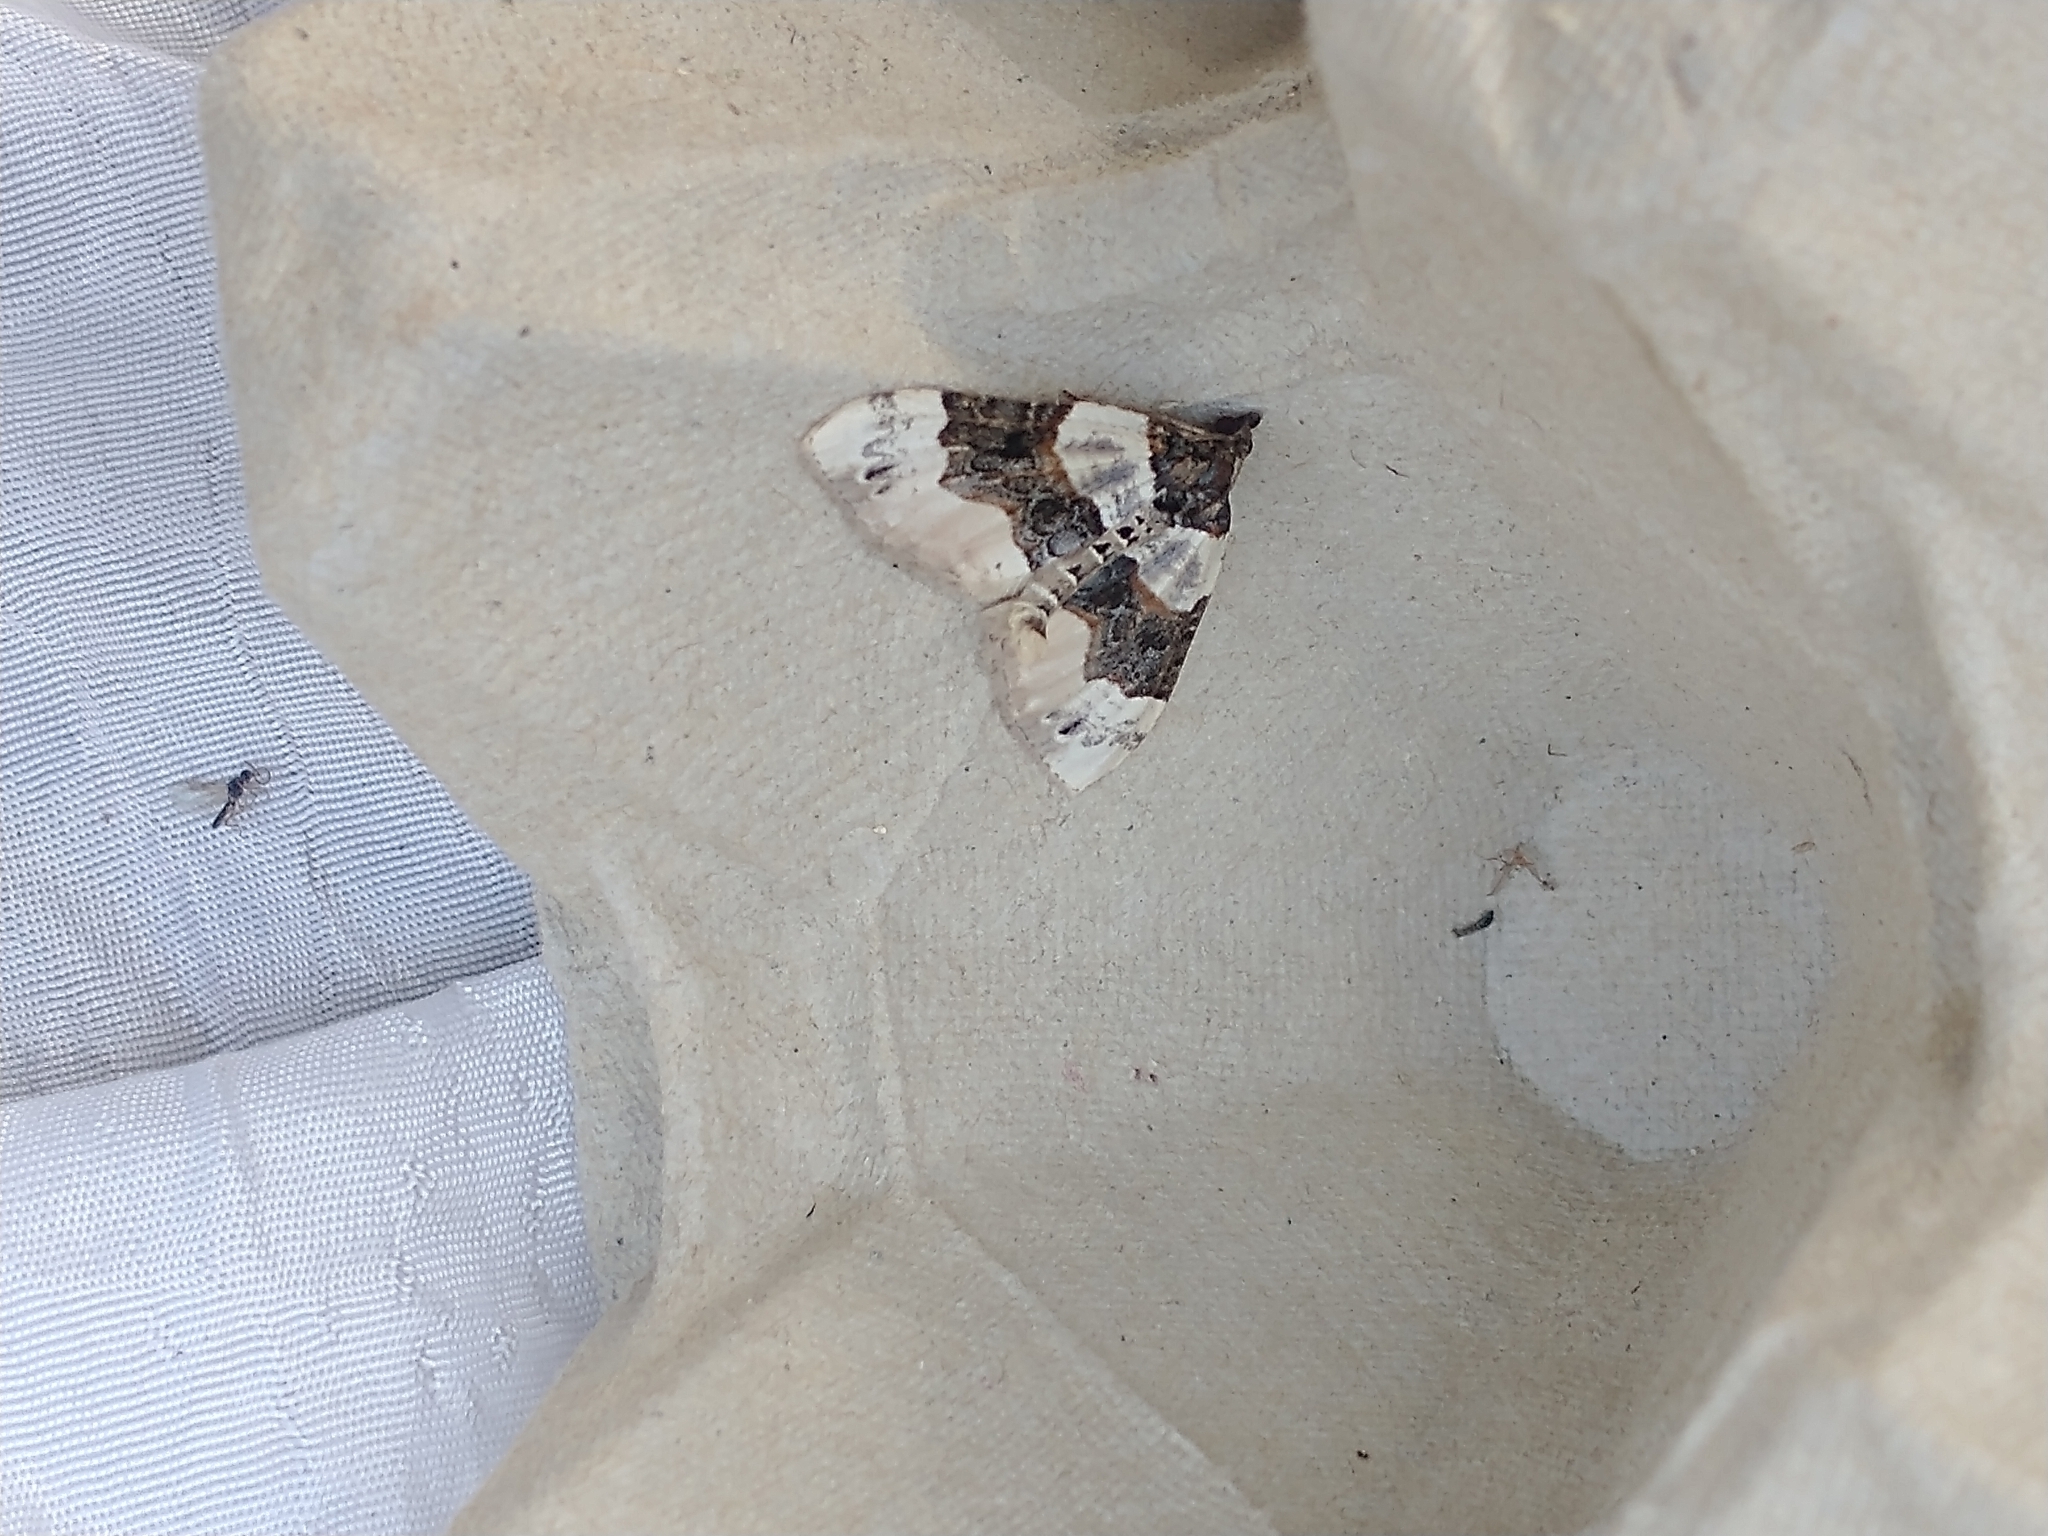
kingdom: Animalia
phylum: Arthropoda
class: Insecta
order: Lepidoptera
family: Geometridae
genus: Cosmorhoe
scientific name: Cosmorhoe ocellata
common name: Purple bar
